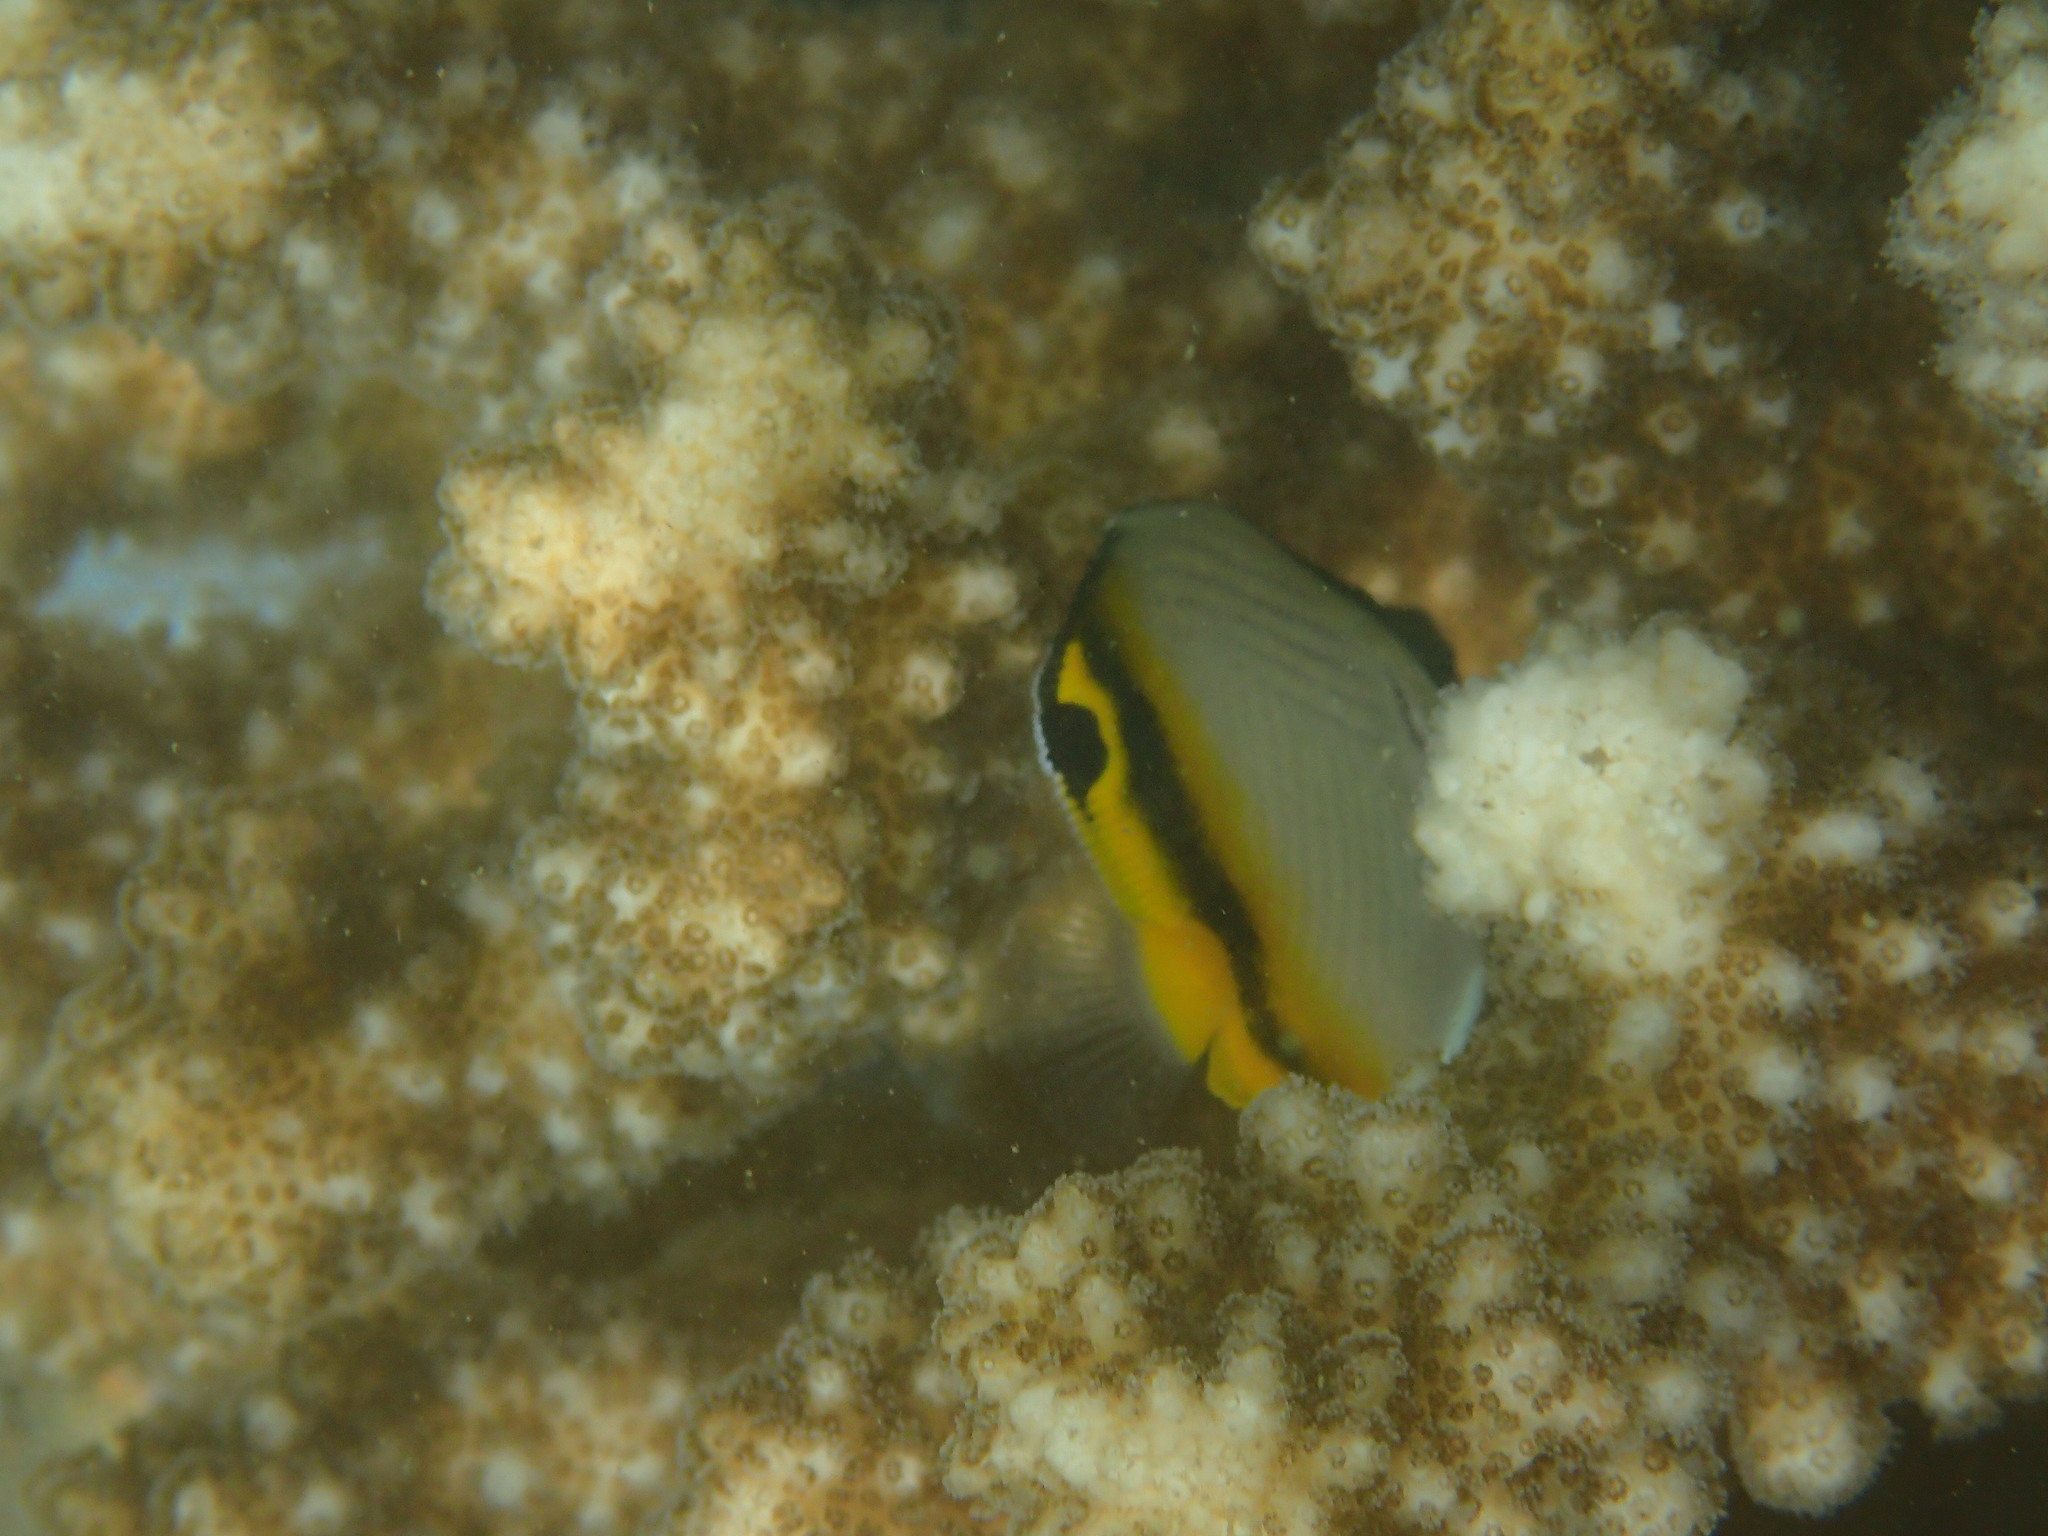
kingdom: Animalia
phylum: Chordata
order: Perciformes
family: Chaetodontidae
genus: Chaetodon
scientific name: Chaetodon vagabundus
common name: Vagabond butterflyfish
